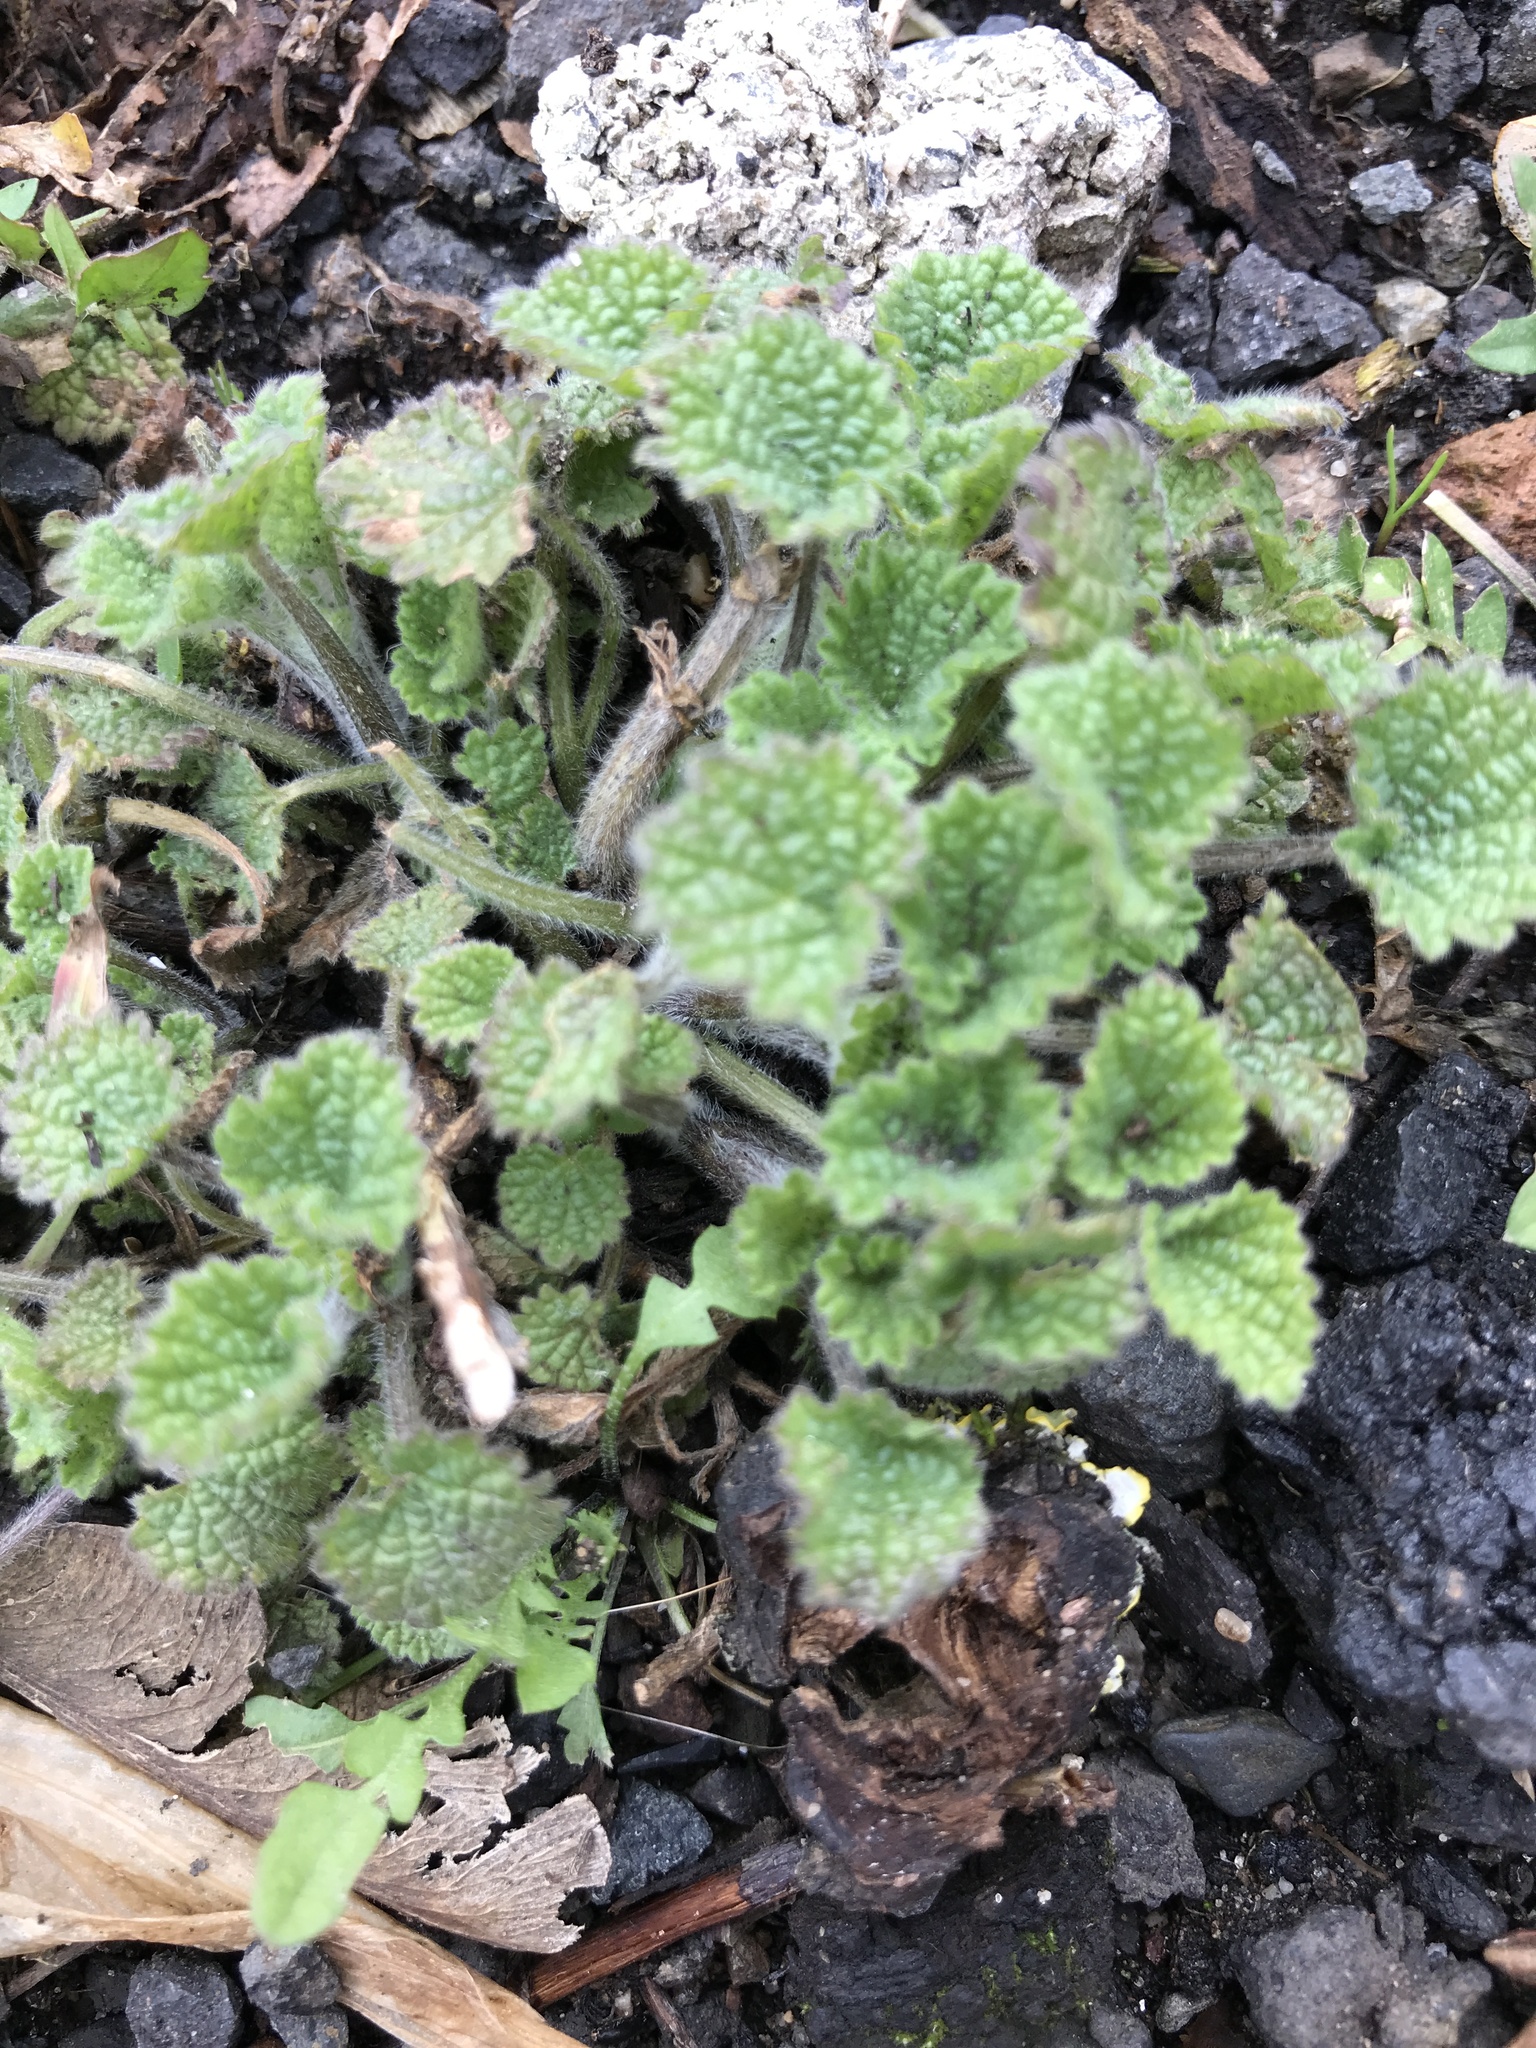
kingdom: Plantae
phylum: Tracheophyta
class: Magnoliopsida
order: Lamiales
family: Lamiaceae
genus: Ballota
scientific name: Ballota nigra
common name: Black horehound
